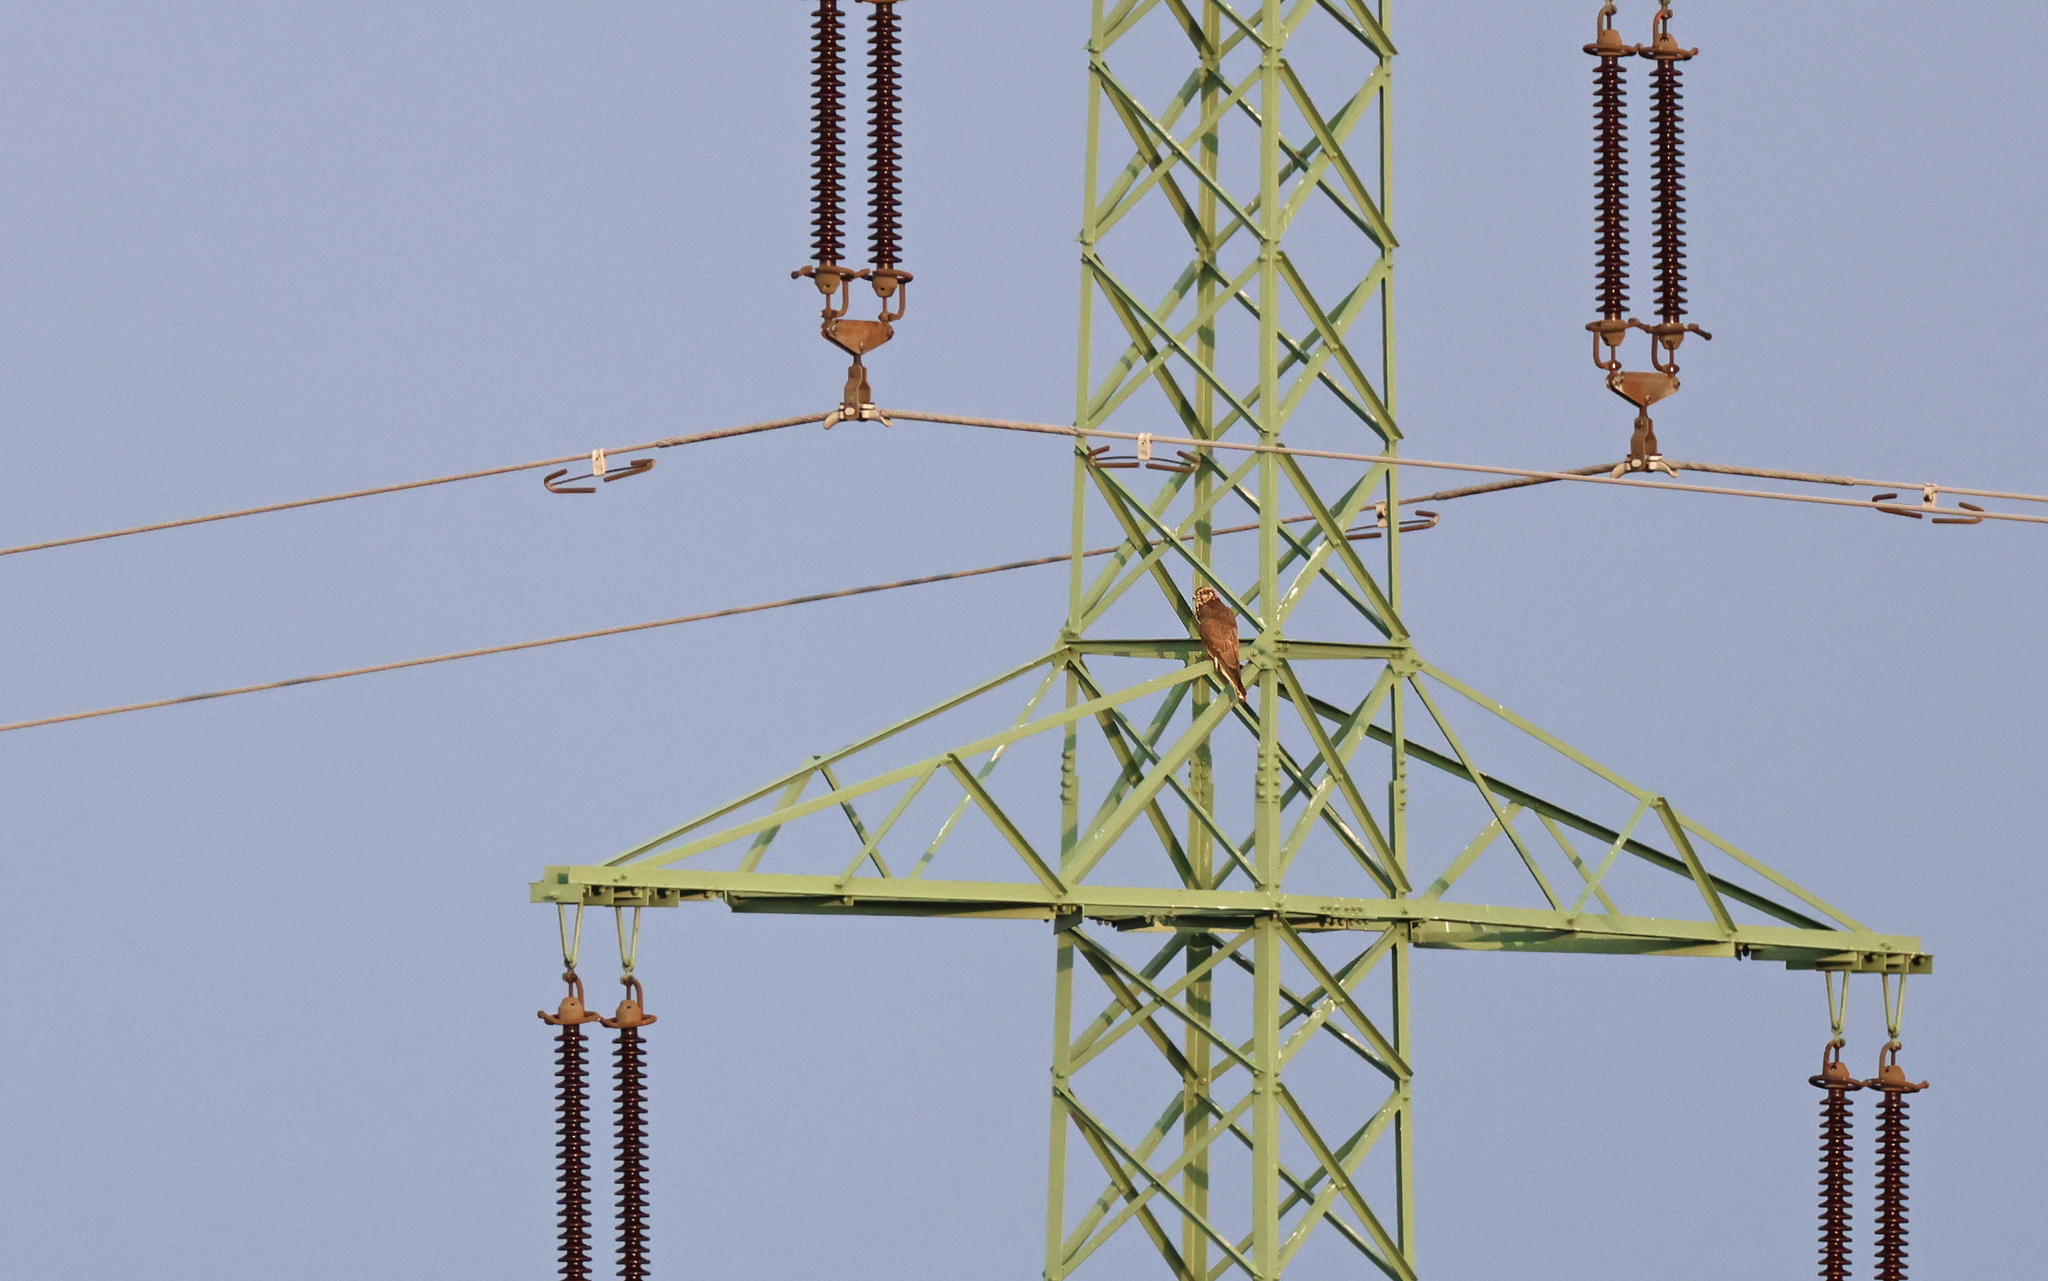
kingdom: Animalia
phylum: Chordata
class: Aves
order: Falconiformes
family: Falconidae
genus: Falco
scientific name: Falco cherrug
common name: Saker falcon
